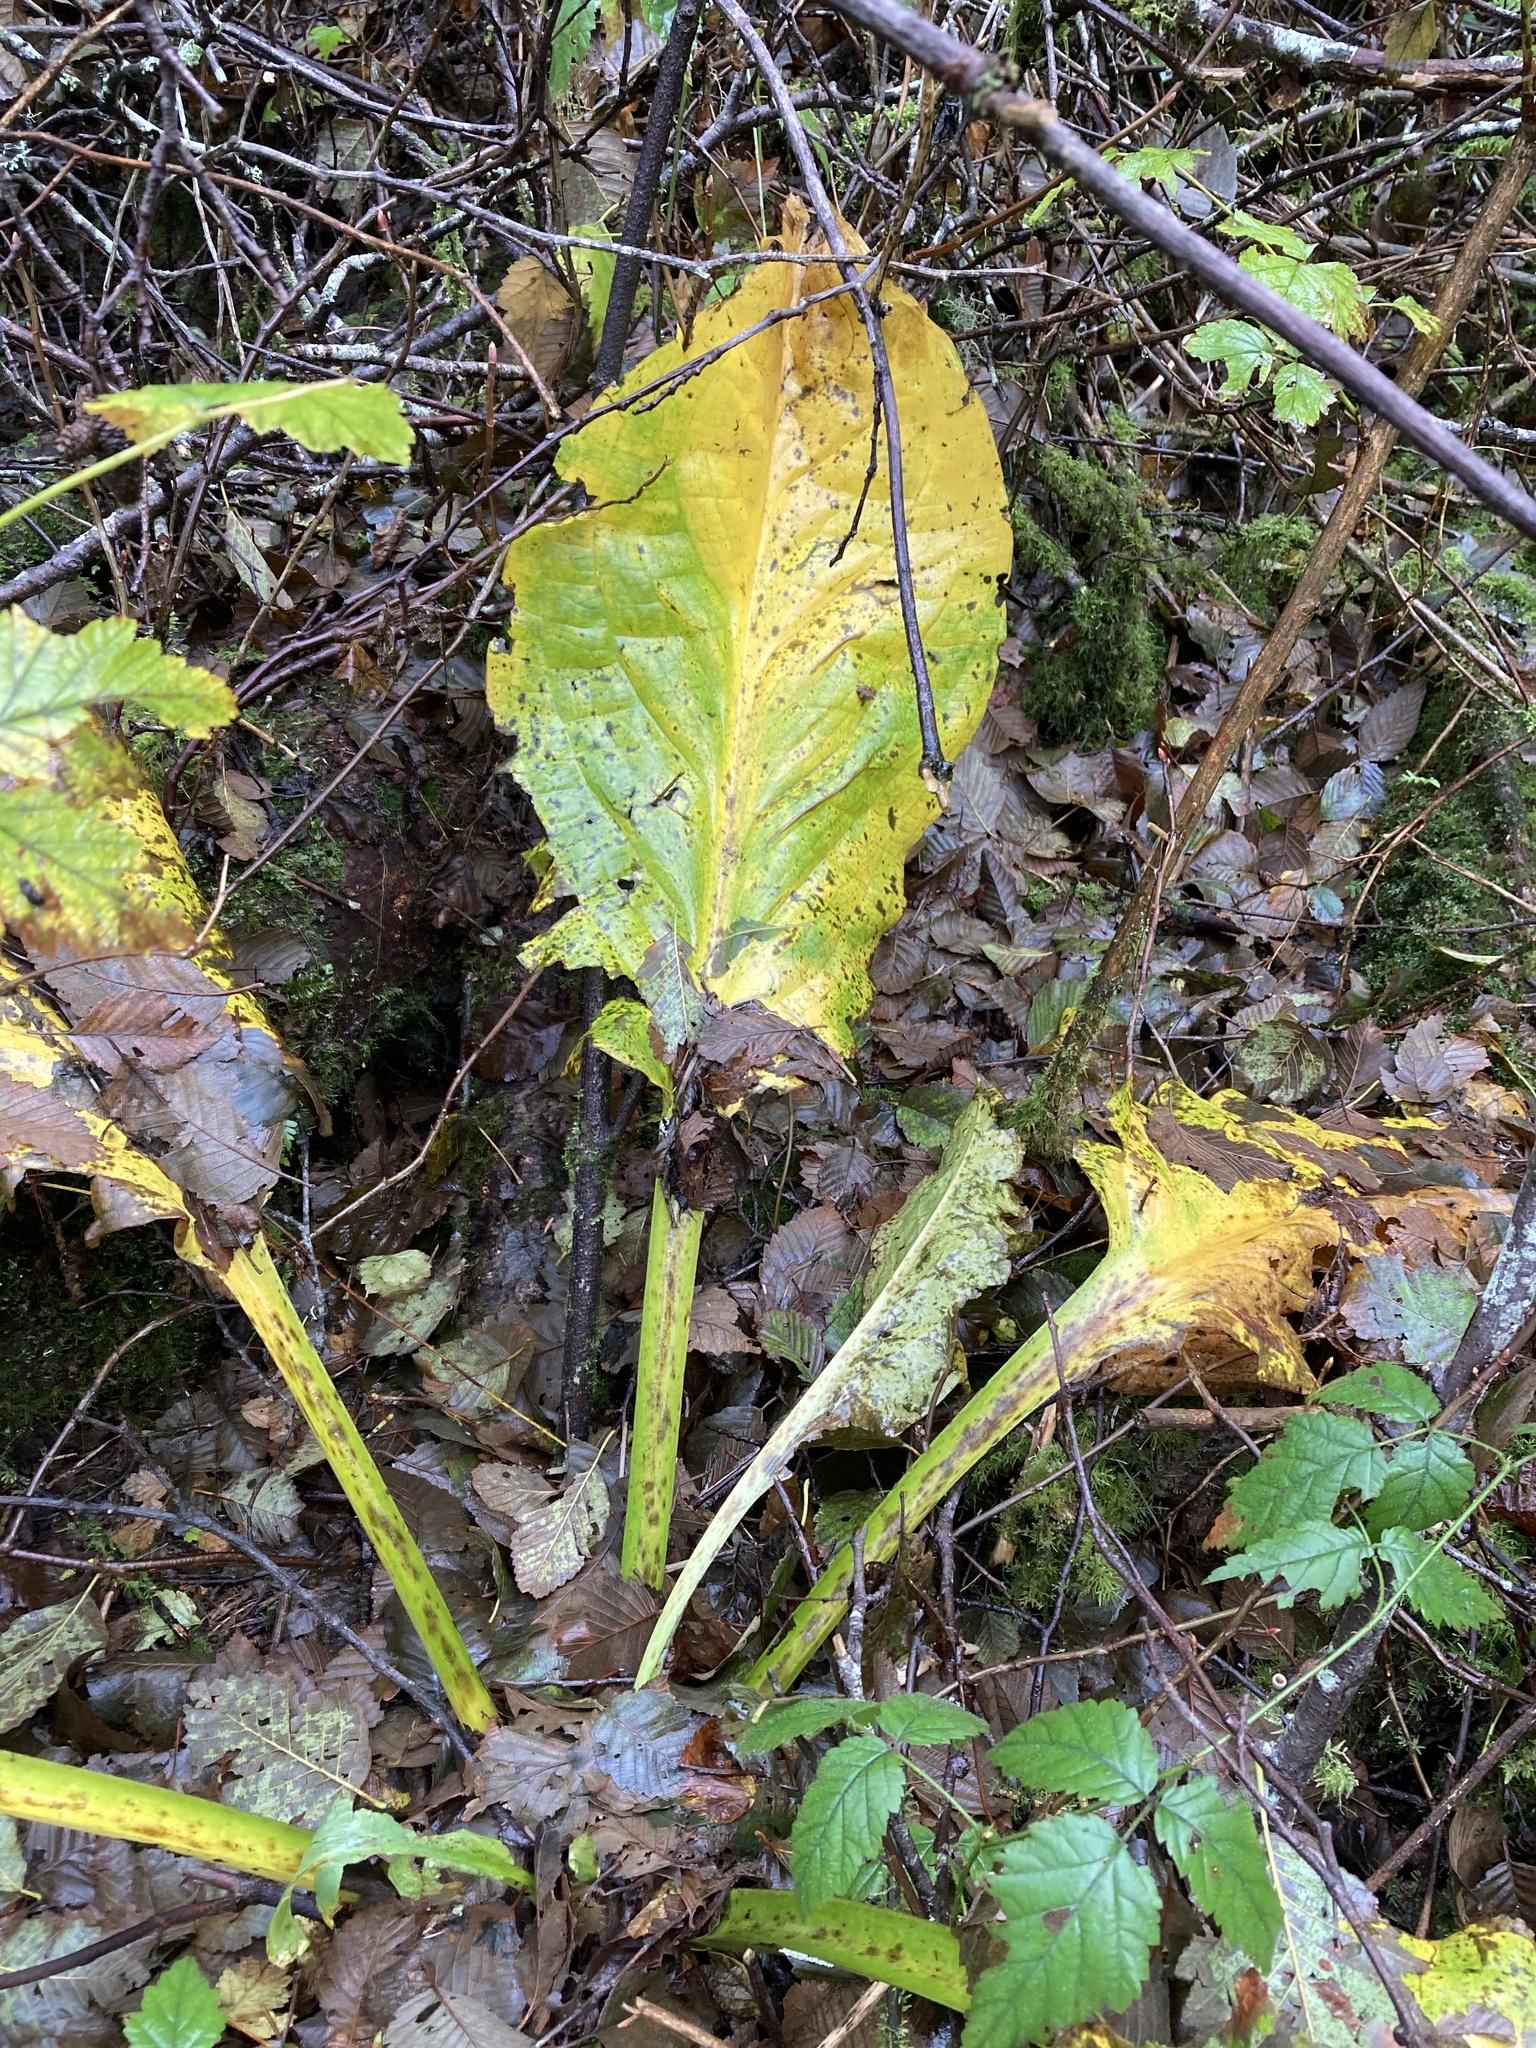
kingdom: Plantae
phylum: Tracheophyta
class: Liliopsida
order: Alismatales
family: Araceae
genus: Lysichiton
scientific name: Lysichiton americanus
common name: American skunk cabbage
